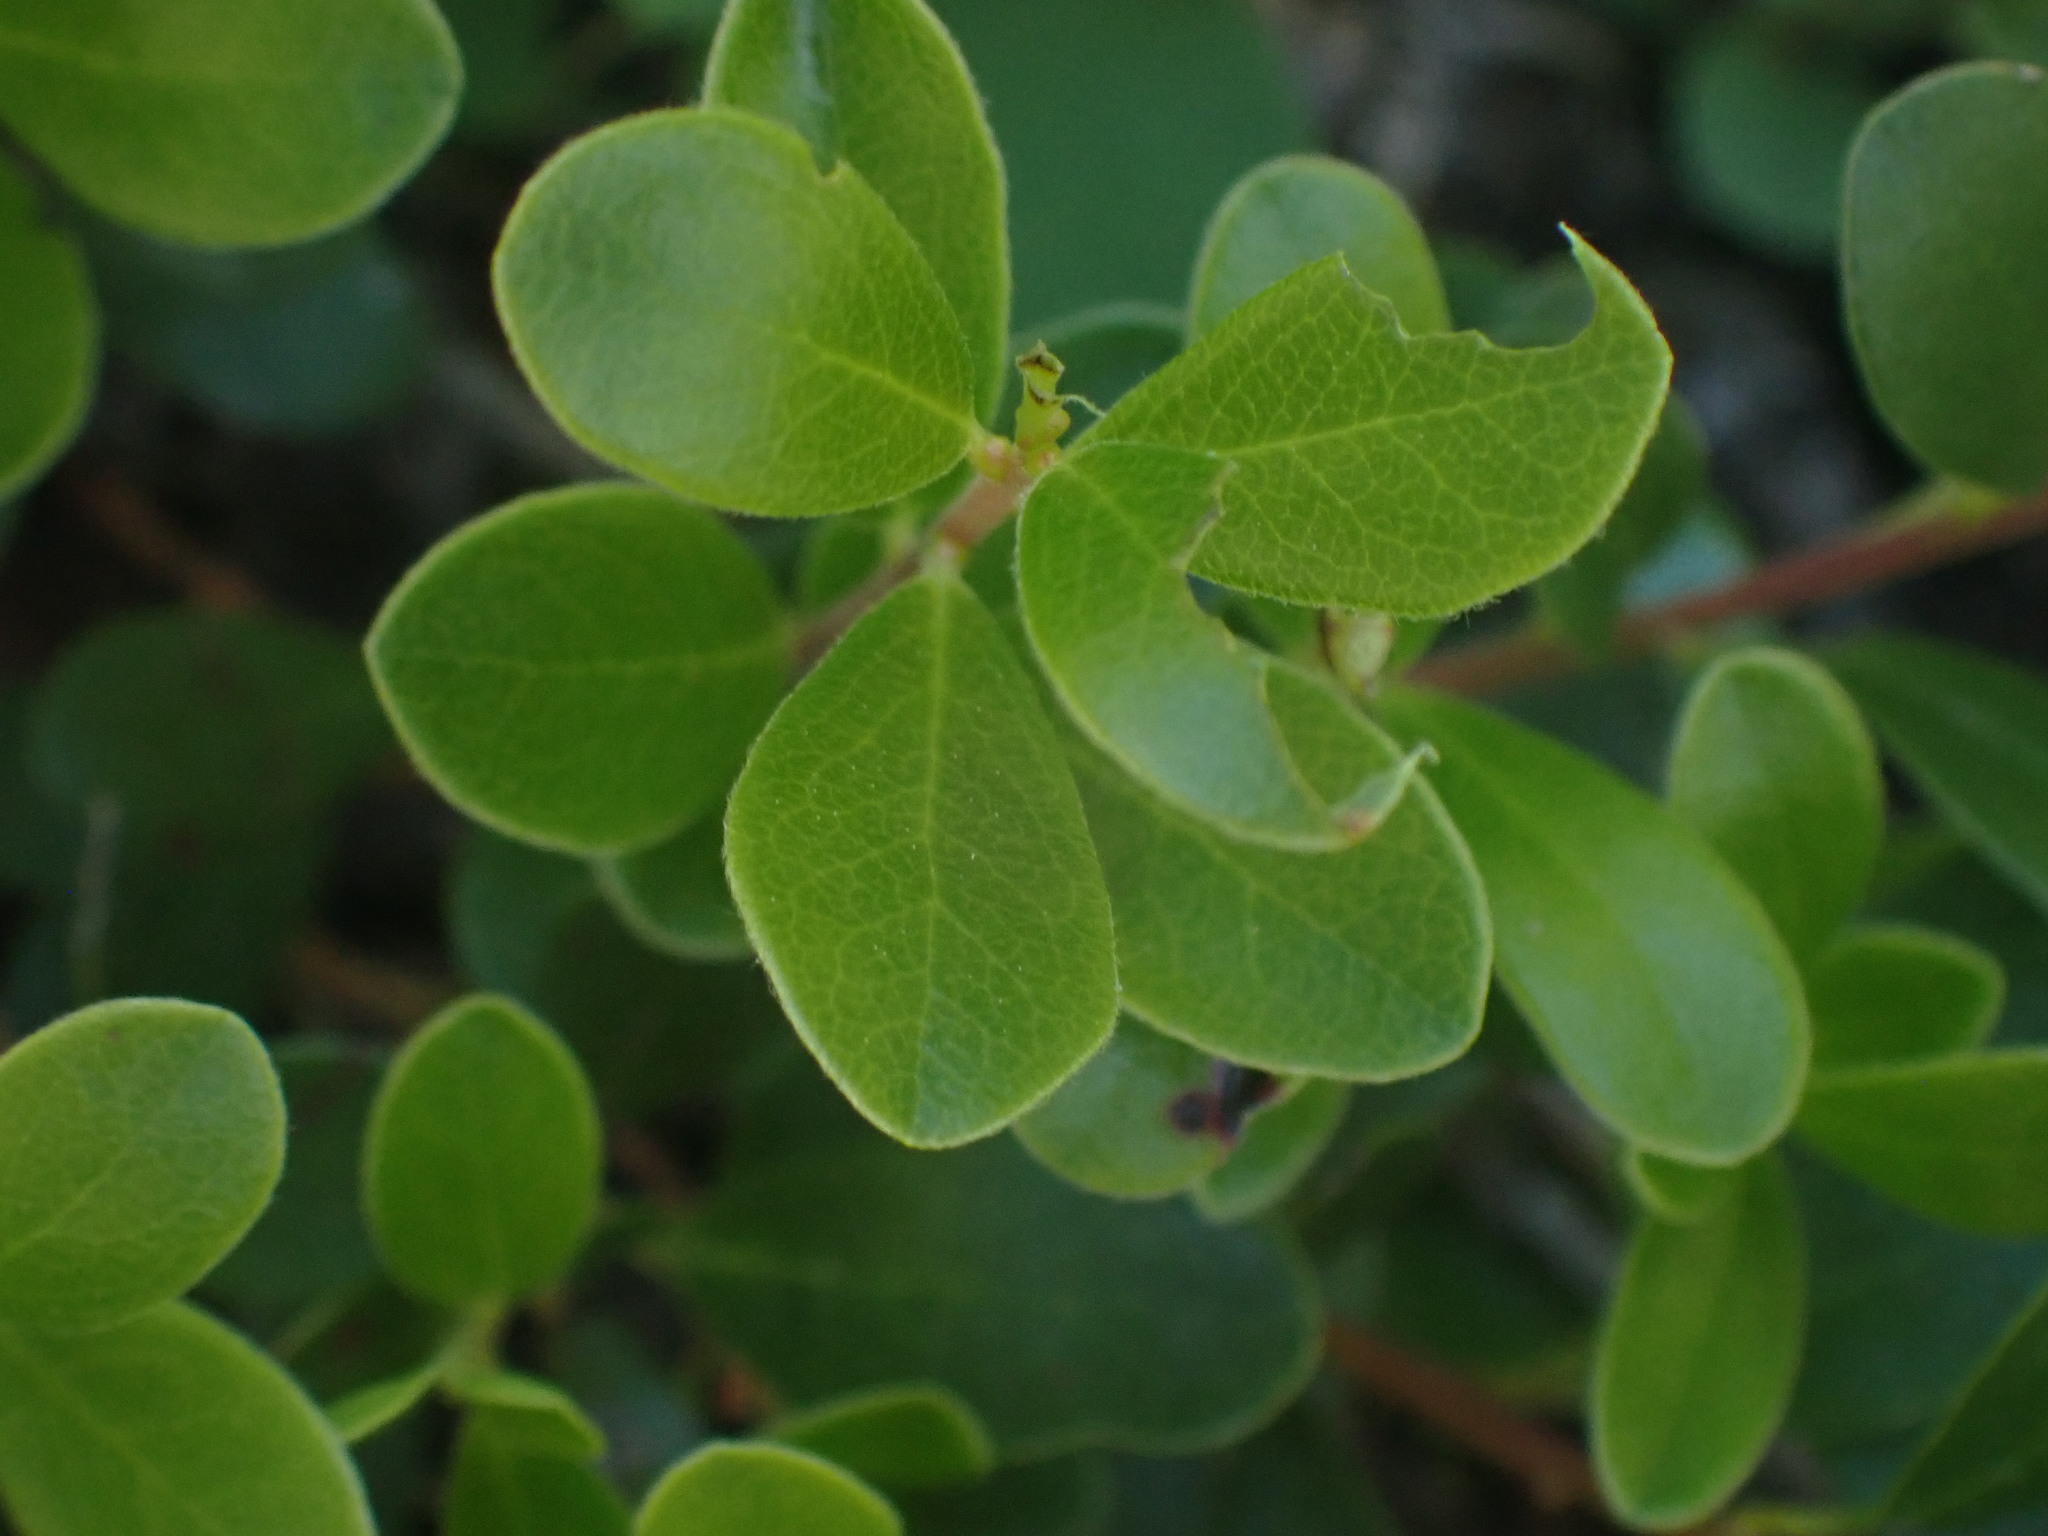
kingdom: Plantae
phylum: Tracheophyta
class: Magnoliopsida
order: Ericales
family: Ericaceae
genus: Arctostaphylos
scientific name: Arctostaphylos uva-ursi
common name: Bearberry
